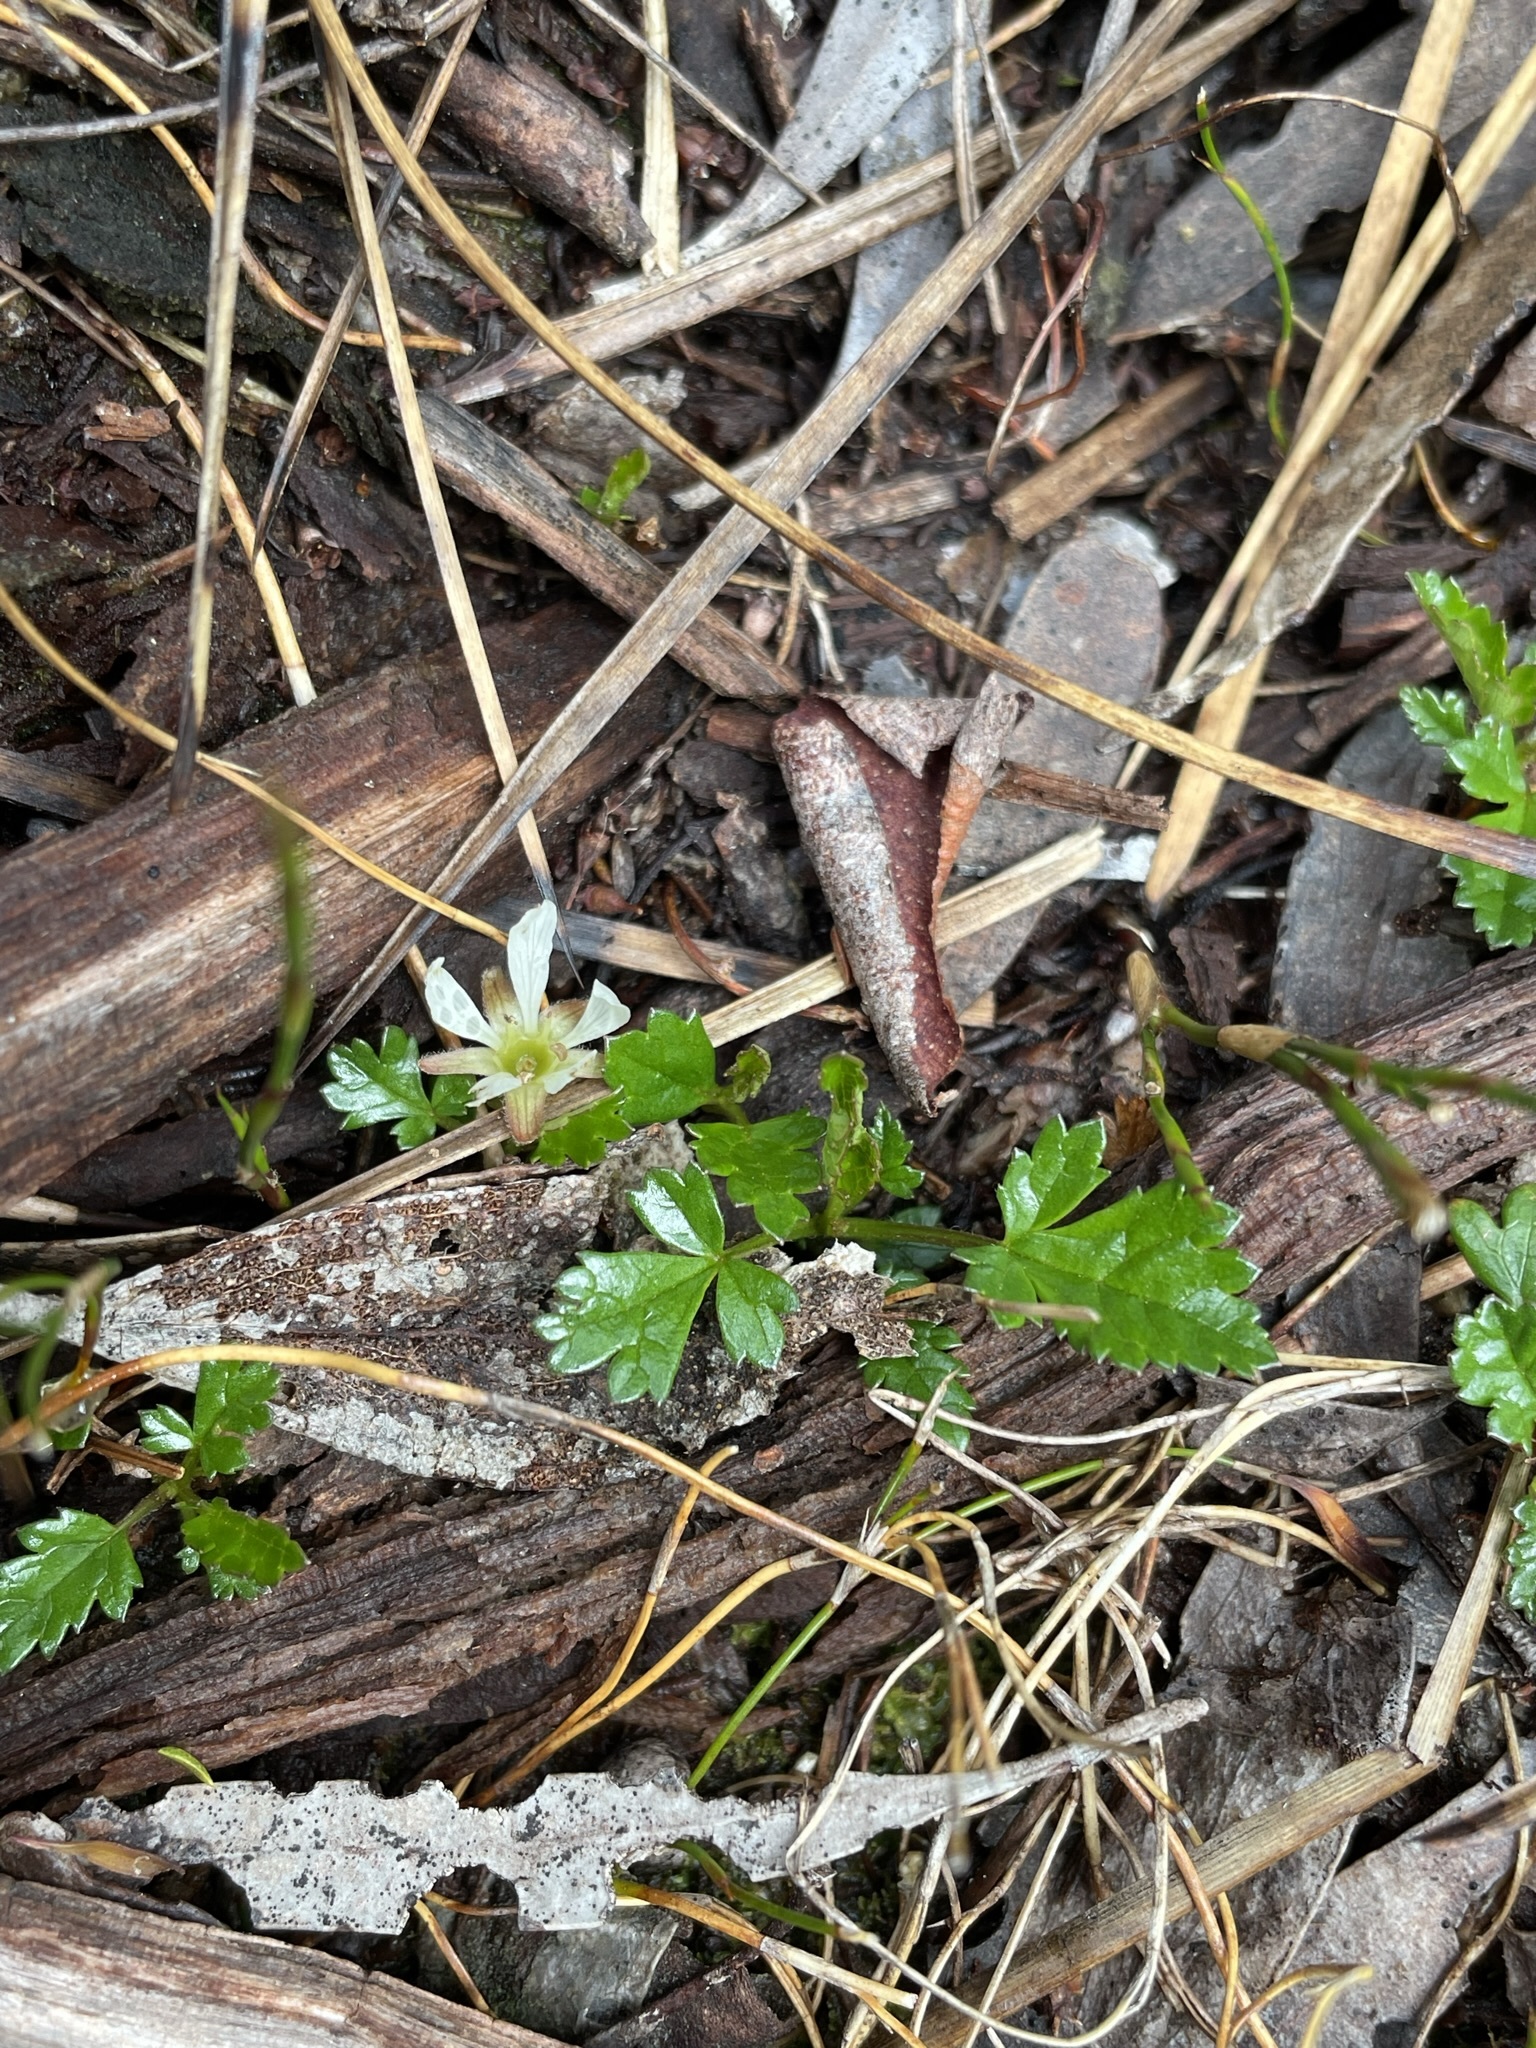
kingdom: Plantae
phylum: Tracheophyta
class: Magnoliopsida
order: Rosales
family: Rosaceae
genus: Rubus
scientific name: Rubus gunnianus
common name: Mountain raspberry
